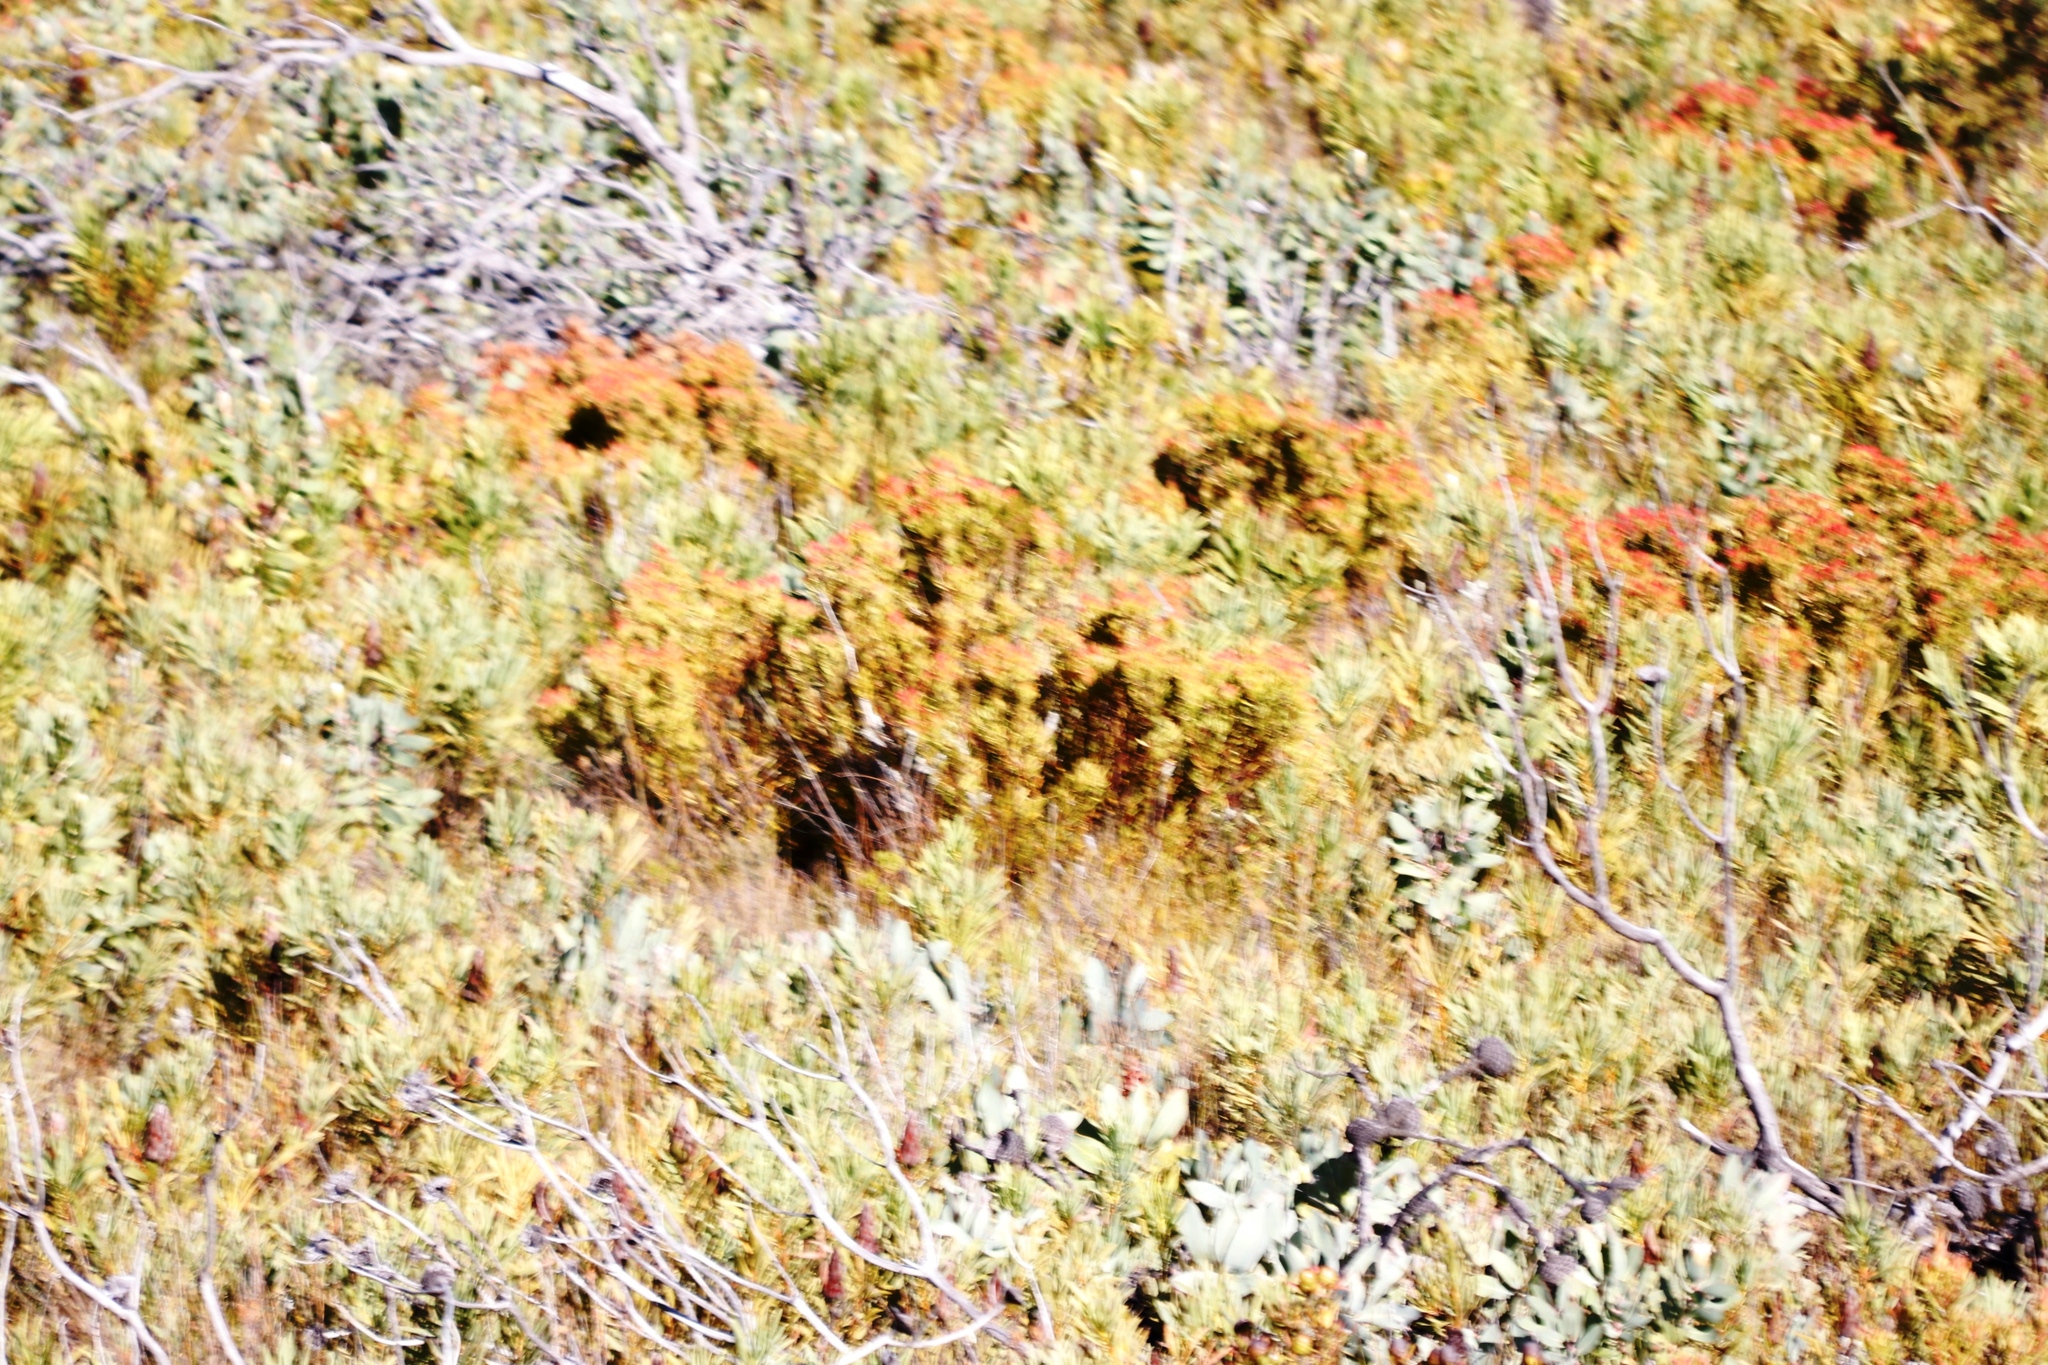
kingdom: Plantae
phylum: Tracheophyta
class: Magnoliopsida
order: Proteales
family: Proteaceae
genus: Leucadendron
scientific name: Leucadendron spissifolium
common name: Spear-leaf conebush
